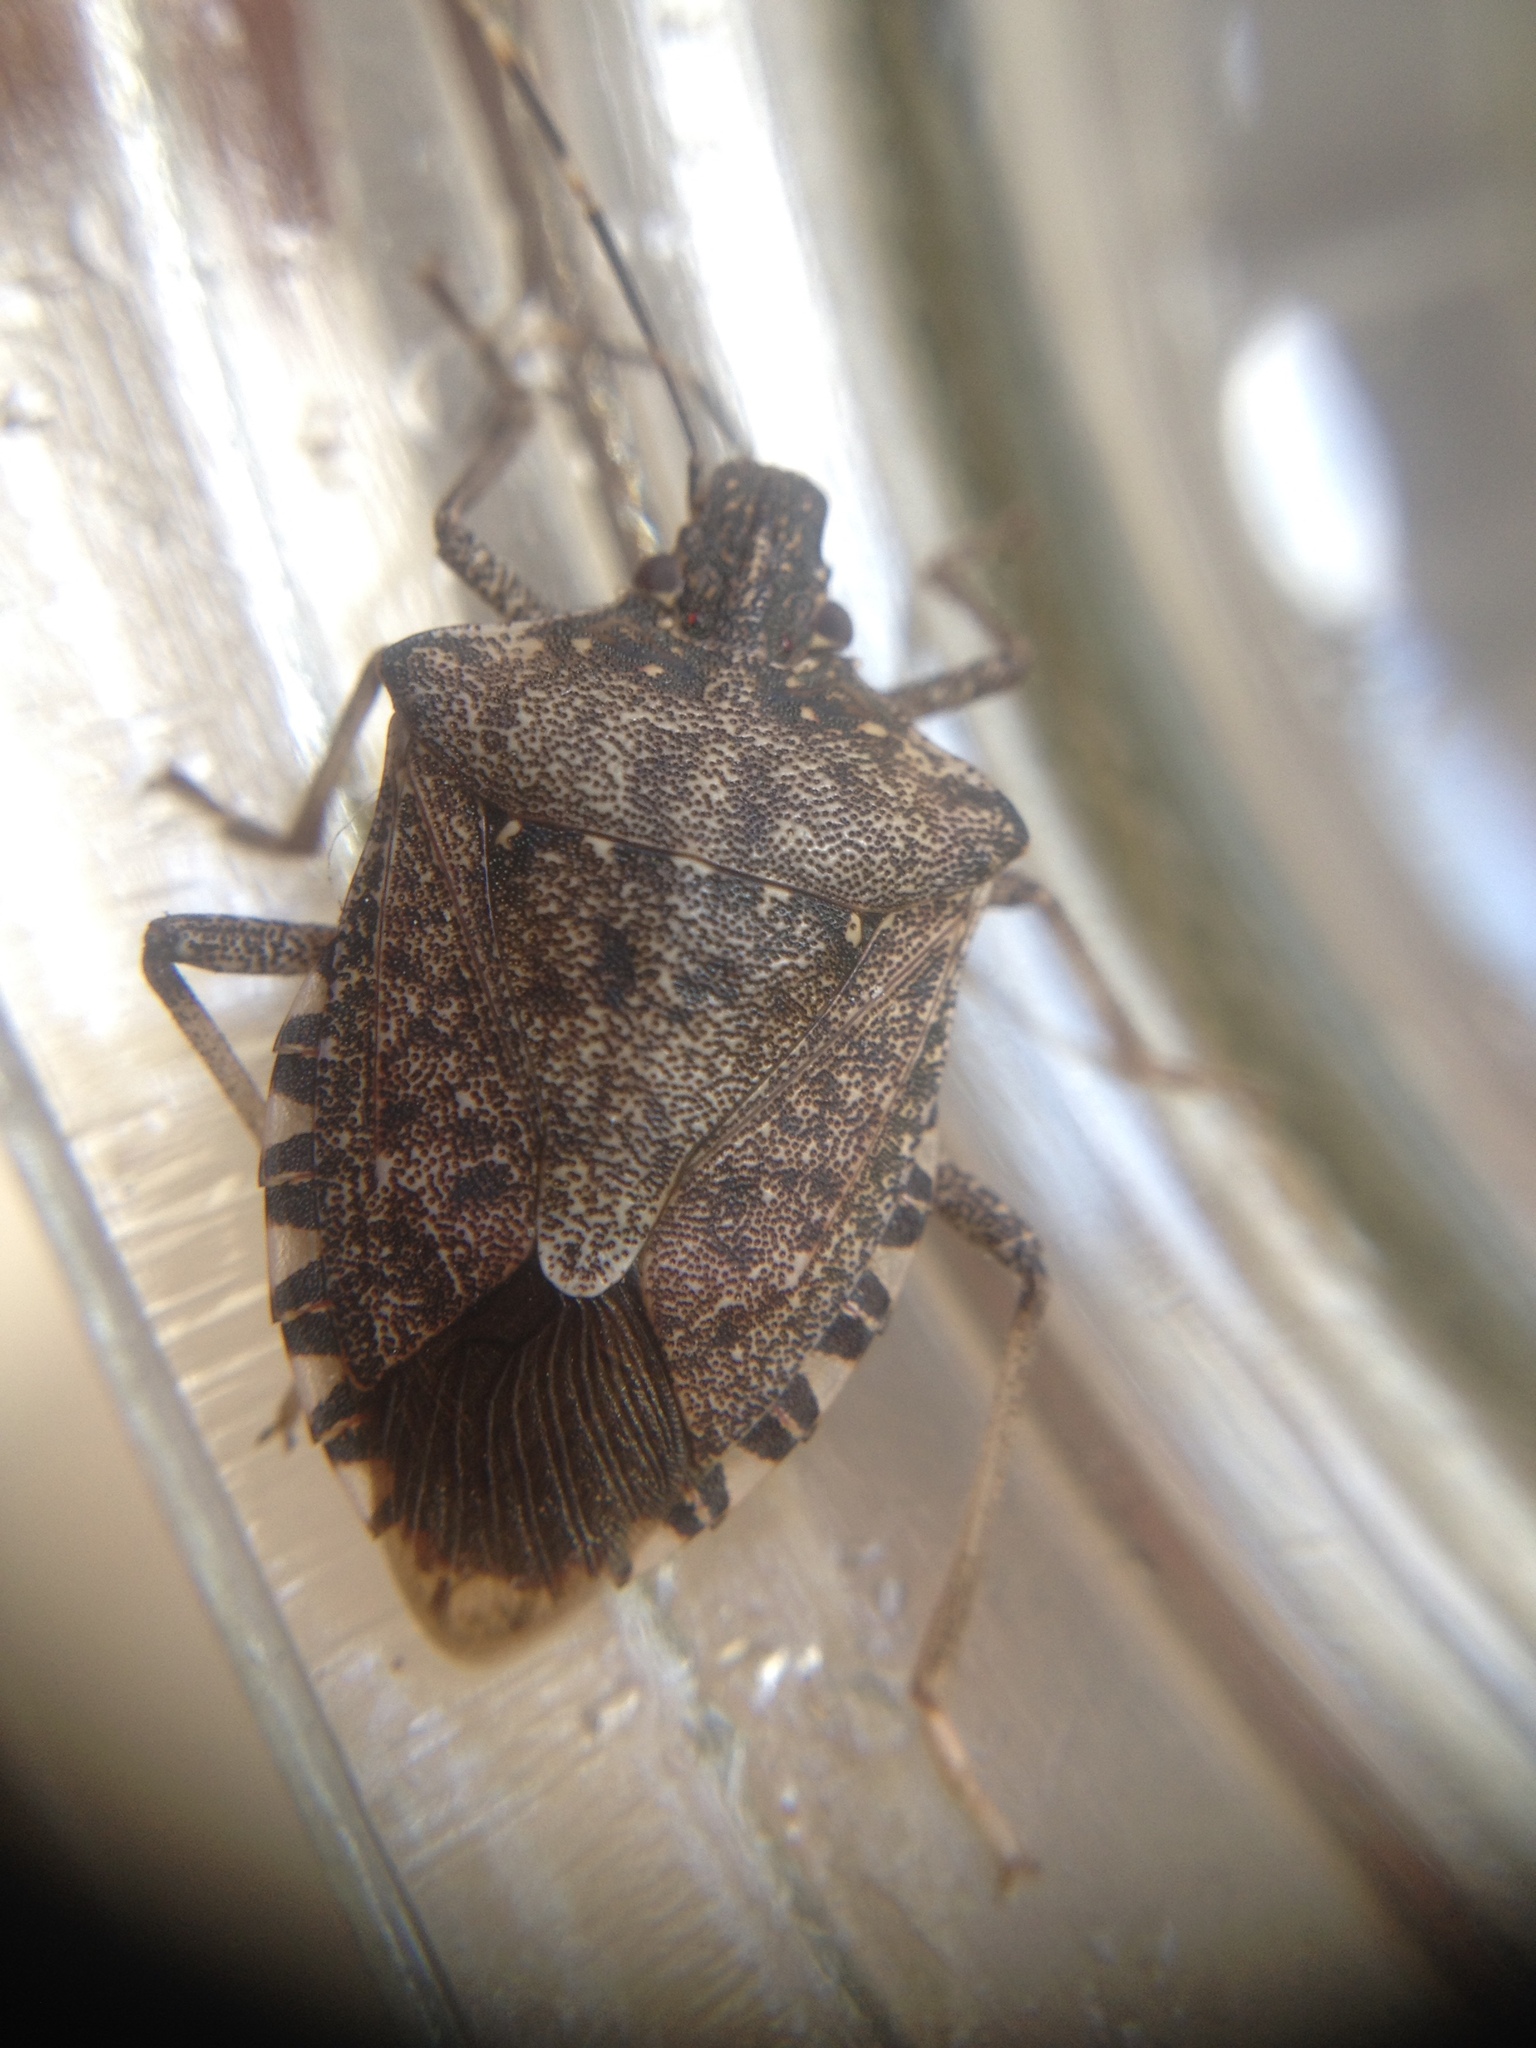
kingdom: Animalia
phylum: Arthropoda
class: Insecta
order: Hemiptera
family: Pentatomidae
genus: Halyomorpha
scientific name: Halyomorpha halys
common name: Brown marmorated stink bug
